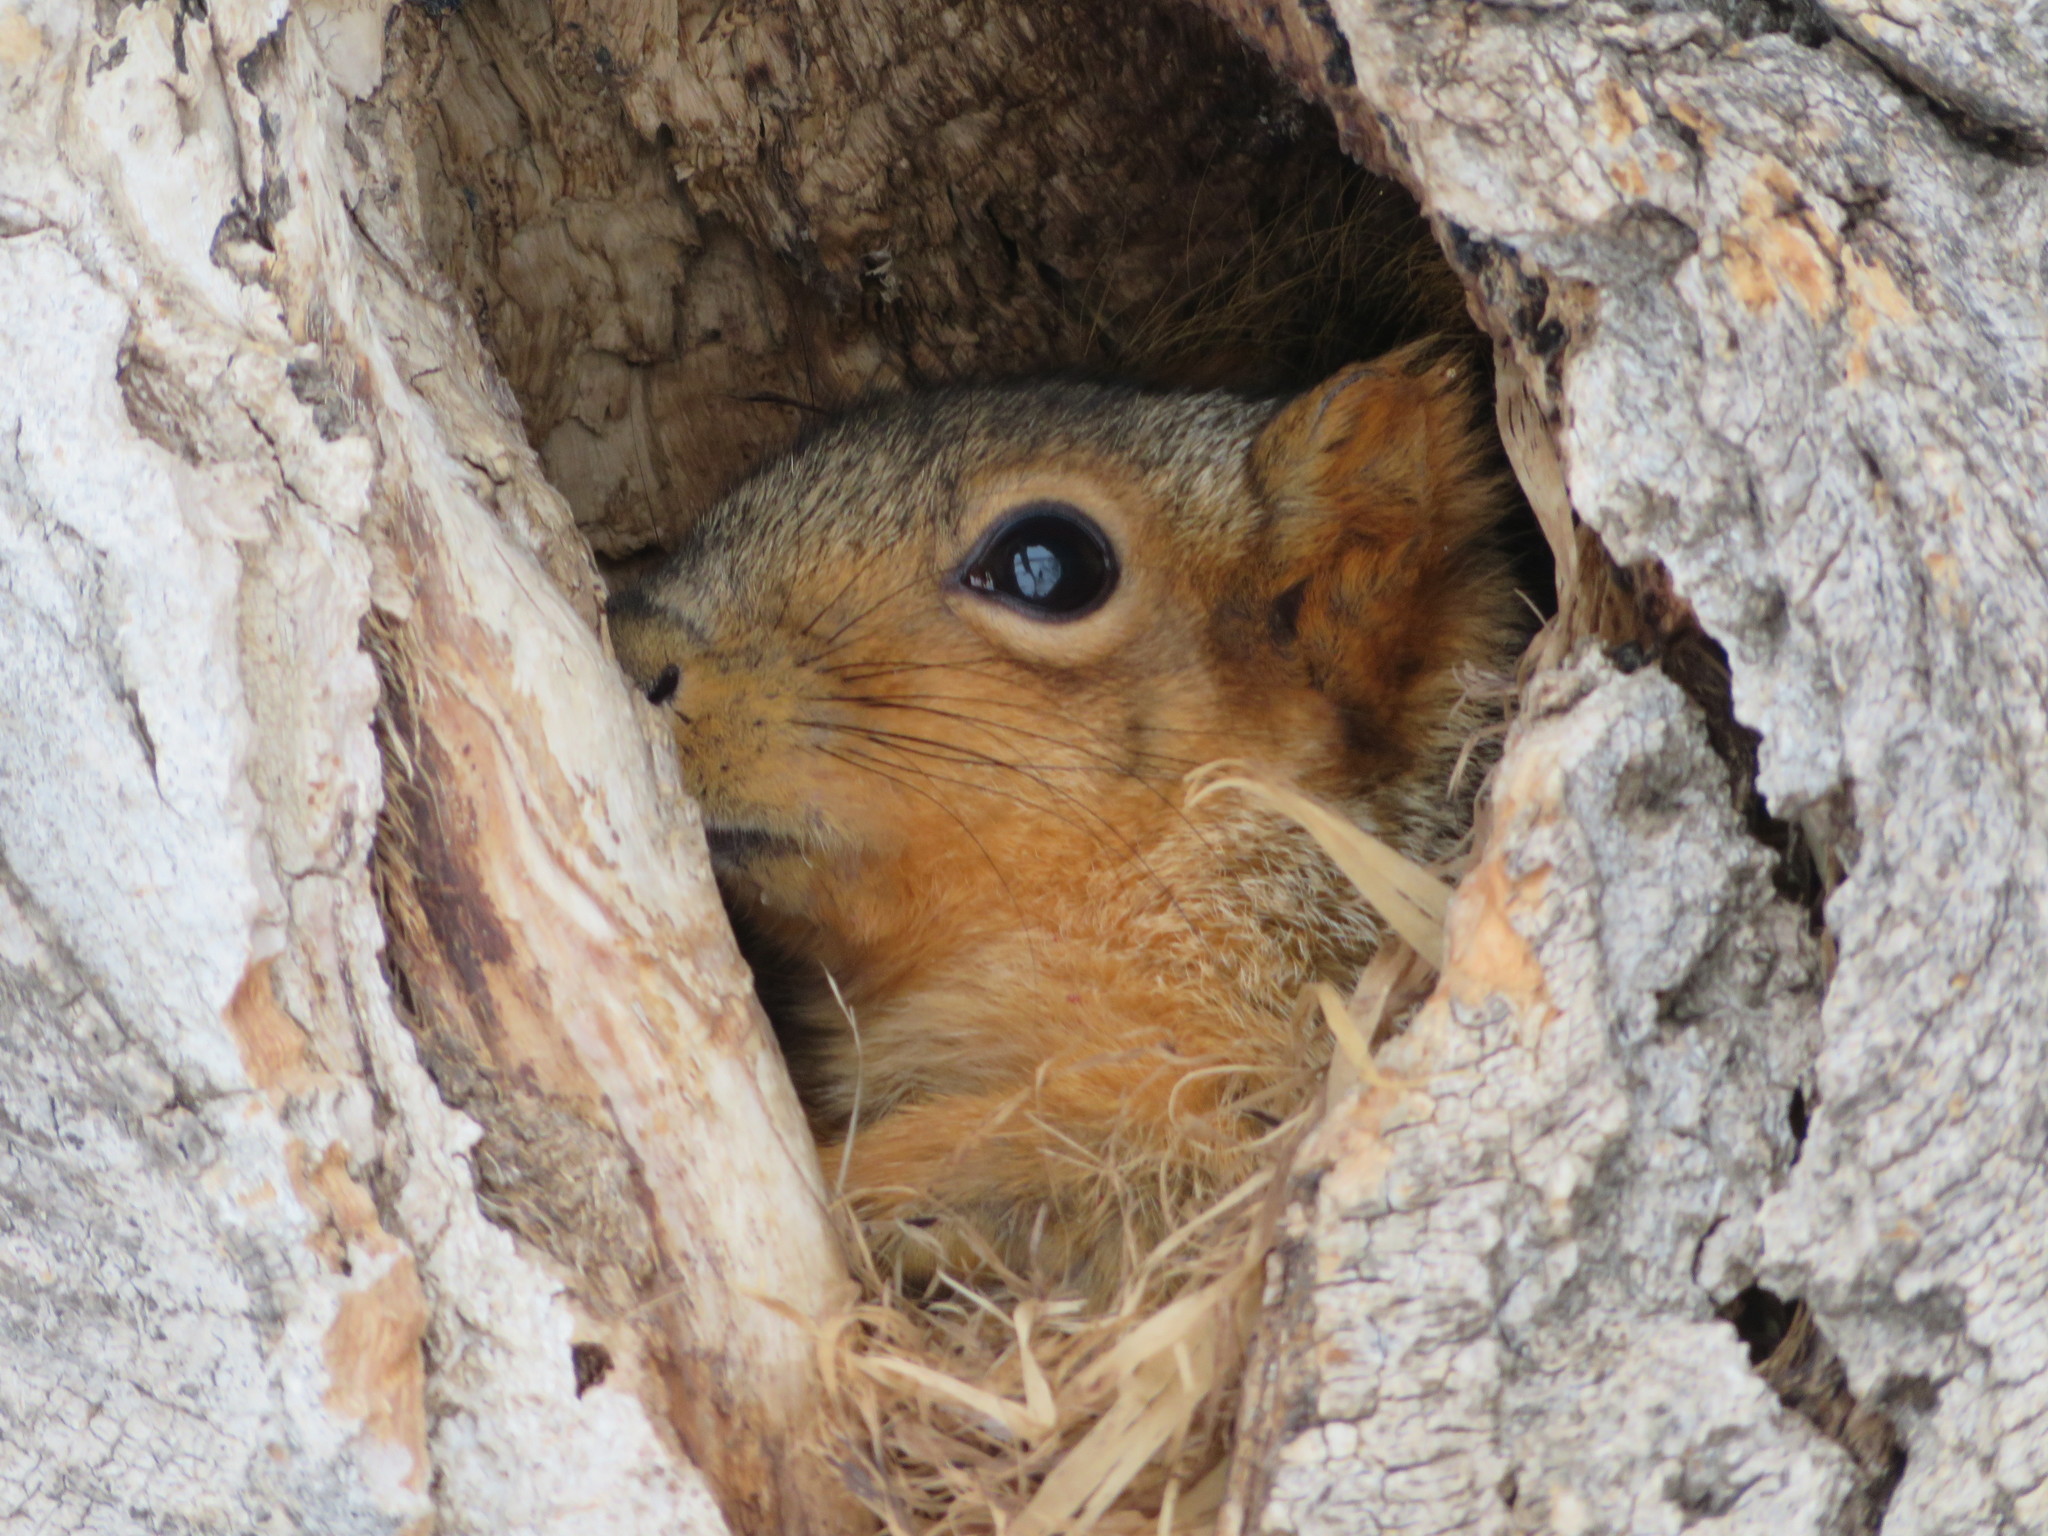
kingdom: Animalia
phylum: Chordata
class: Mammalia
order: Rodentia
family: Sciuridae
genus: Sciurus
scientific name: Sciurus niger
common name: Fox squirrel
